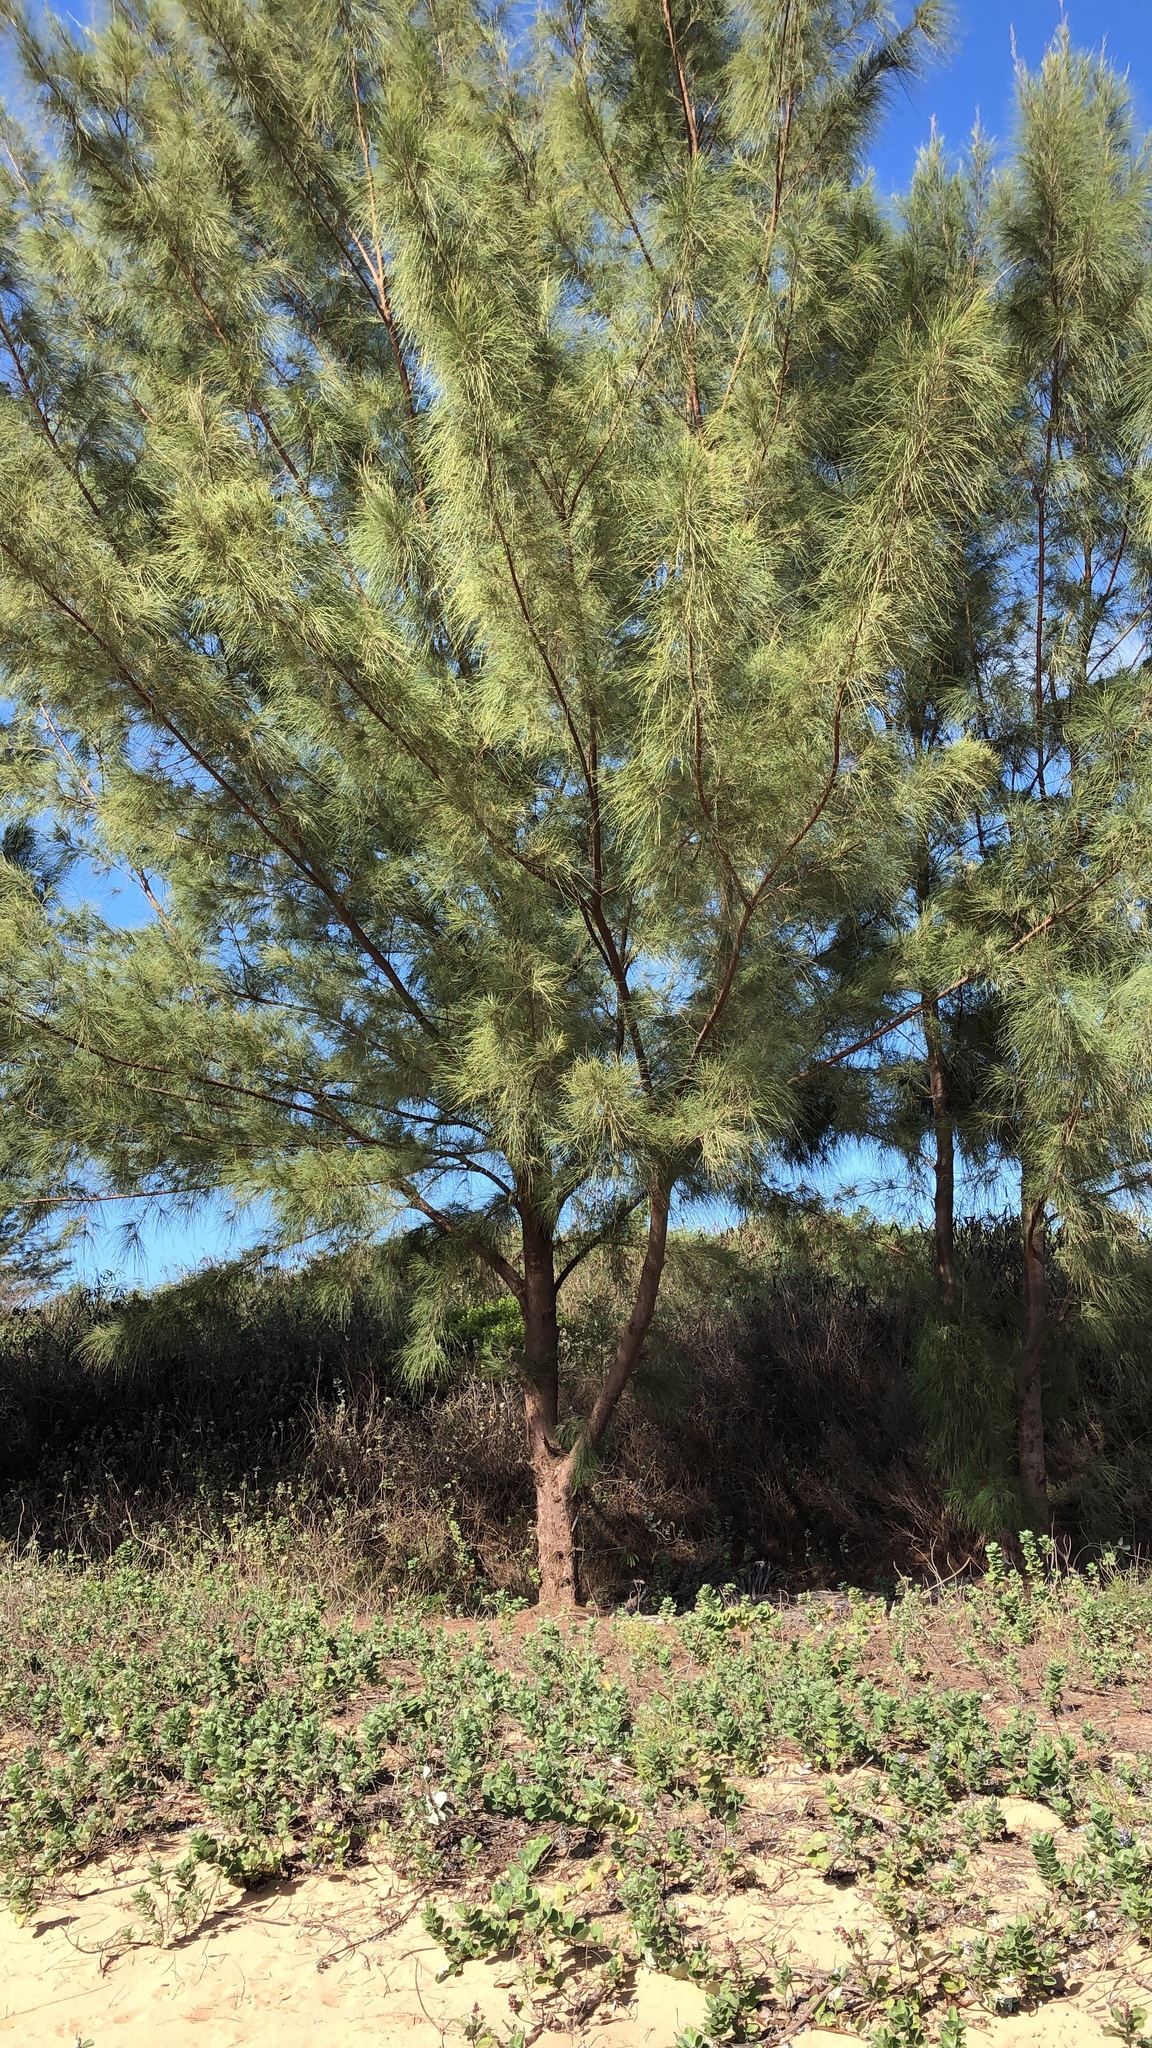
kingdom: Plantae
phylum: Tracheophyta
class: Magnoliopsida
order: Fagales
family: Casuarinaceae
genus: Casuarina
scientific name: Casuarina equisetifolia
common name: Beach sheoak
